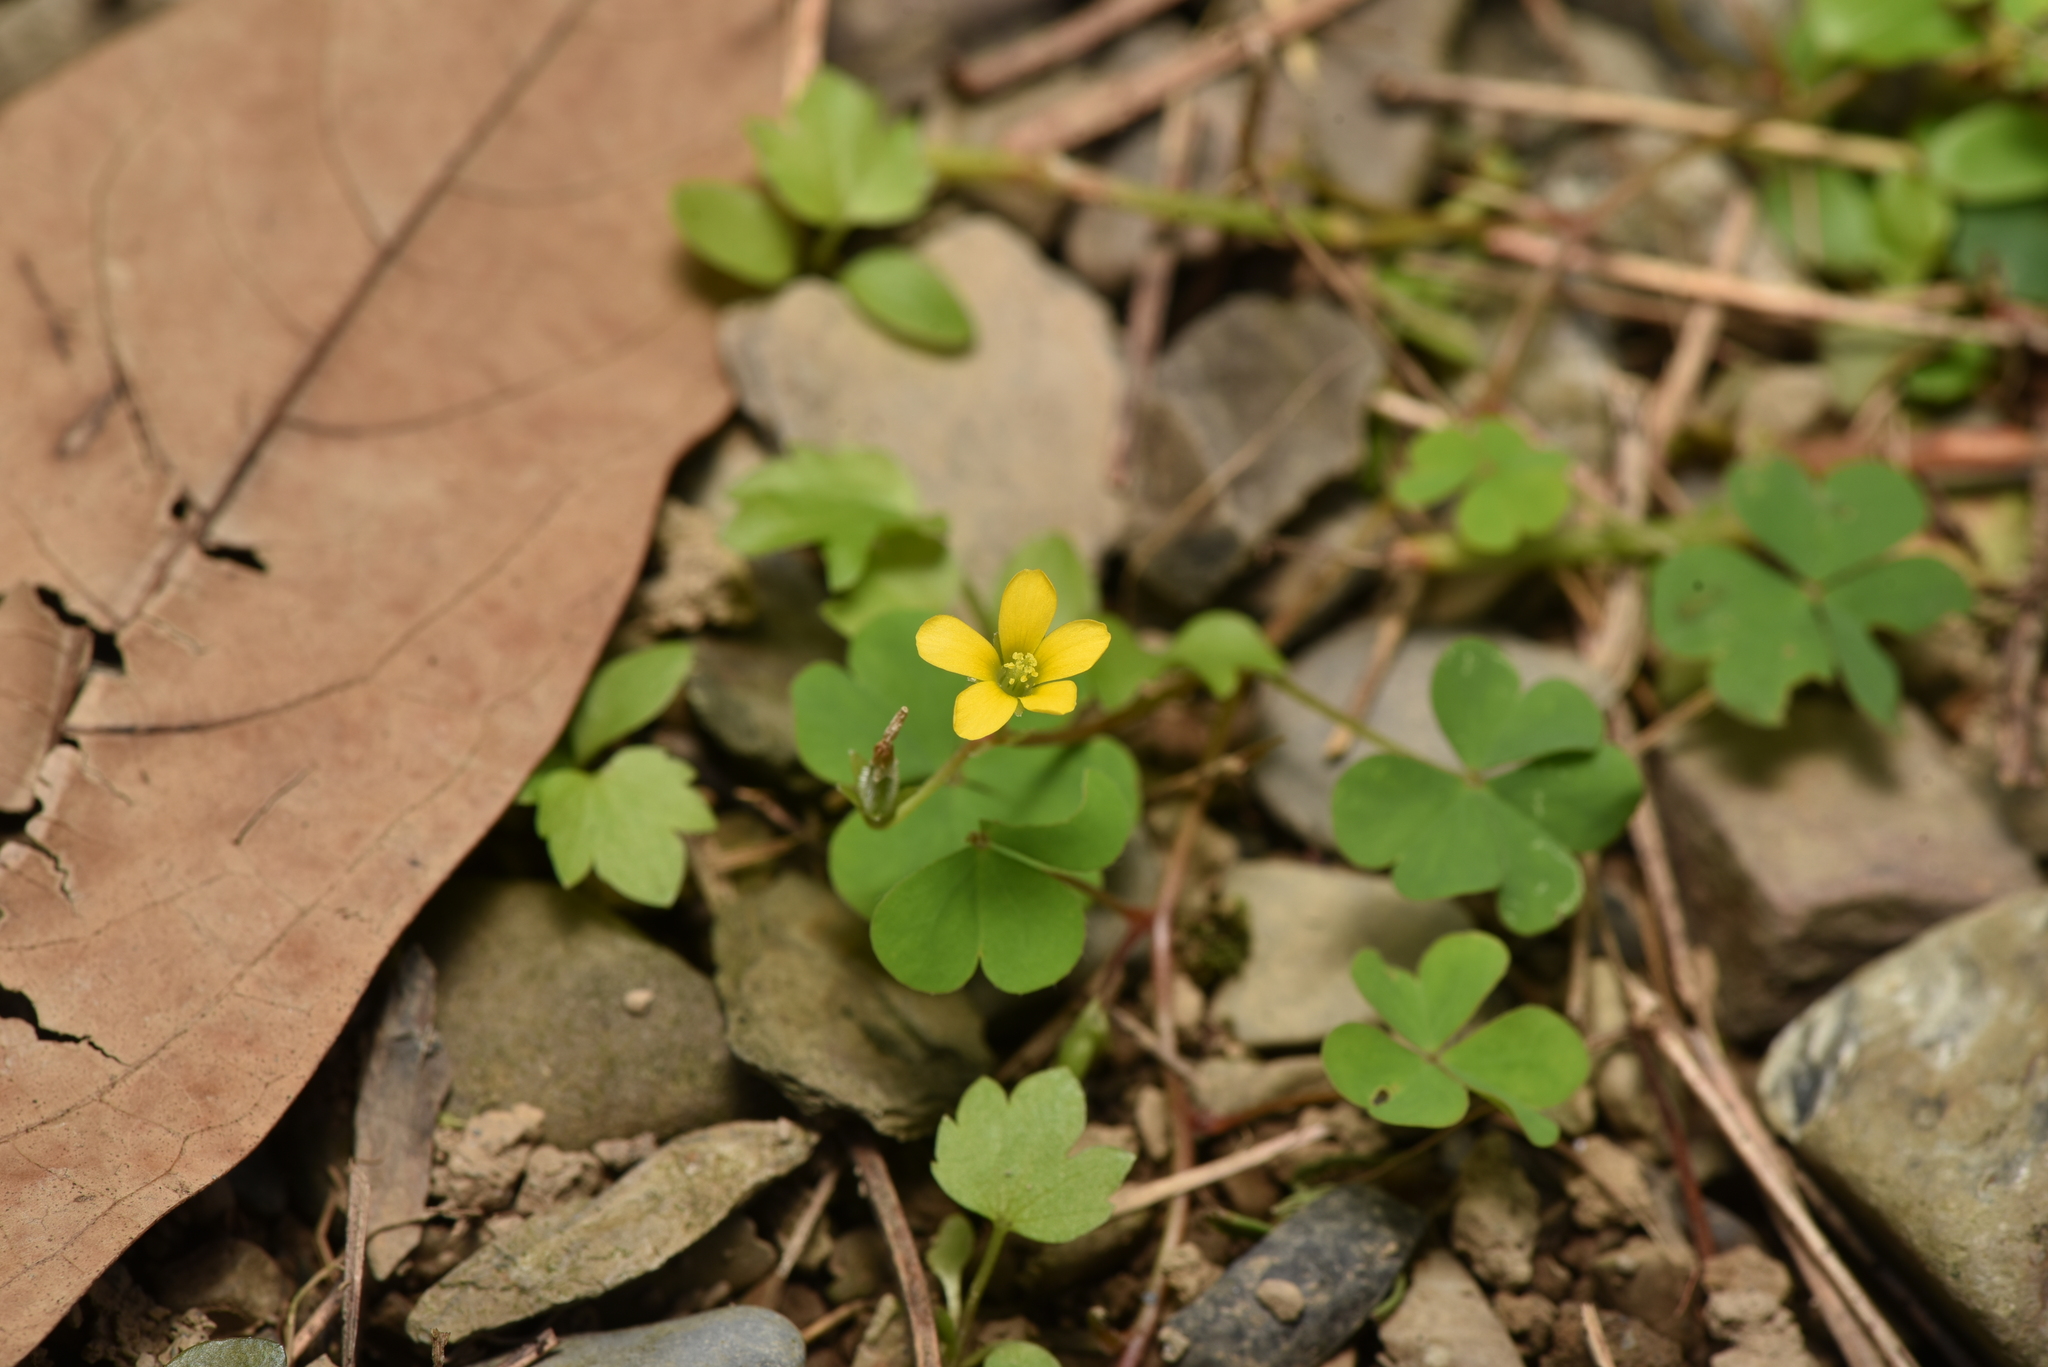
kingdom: Plantae
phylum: Tracheophyta
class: Magnoliopsida
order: Oxalidales
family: Oxalidaceae
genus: Oxalis
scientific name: Oxalis corniculata
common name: Procumbent yellow-sorrel
